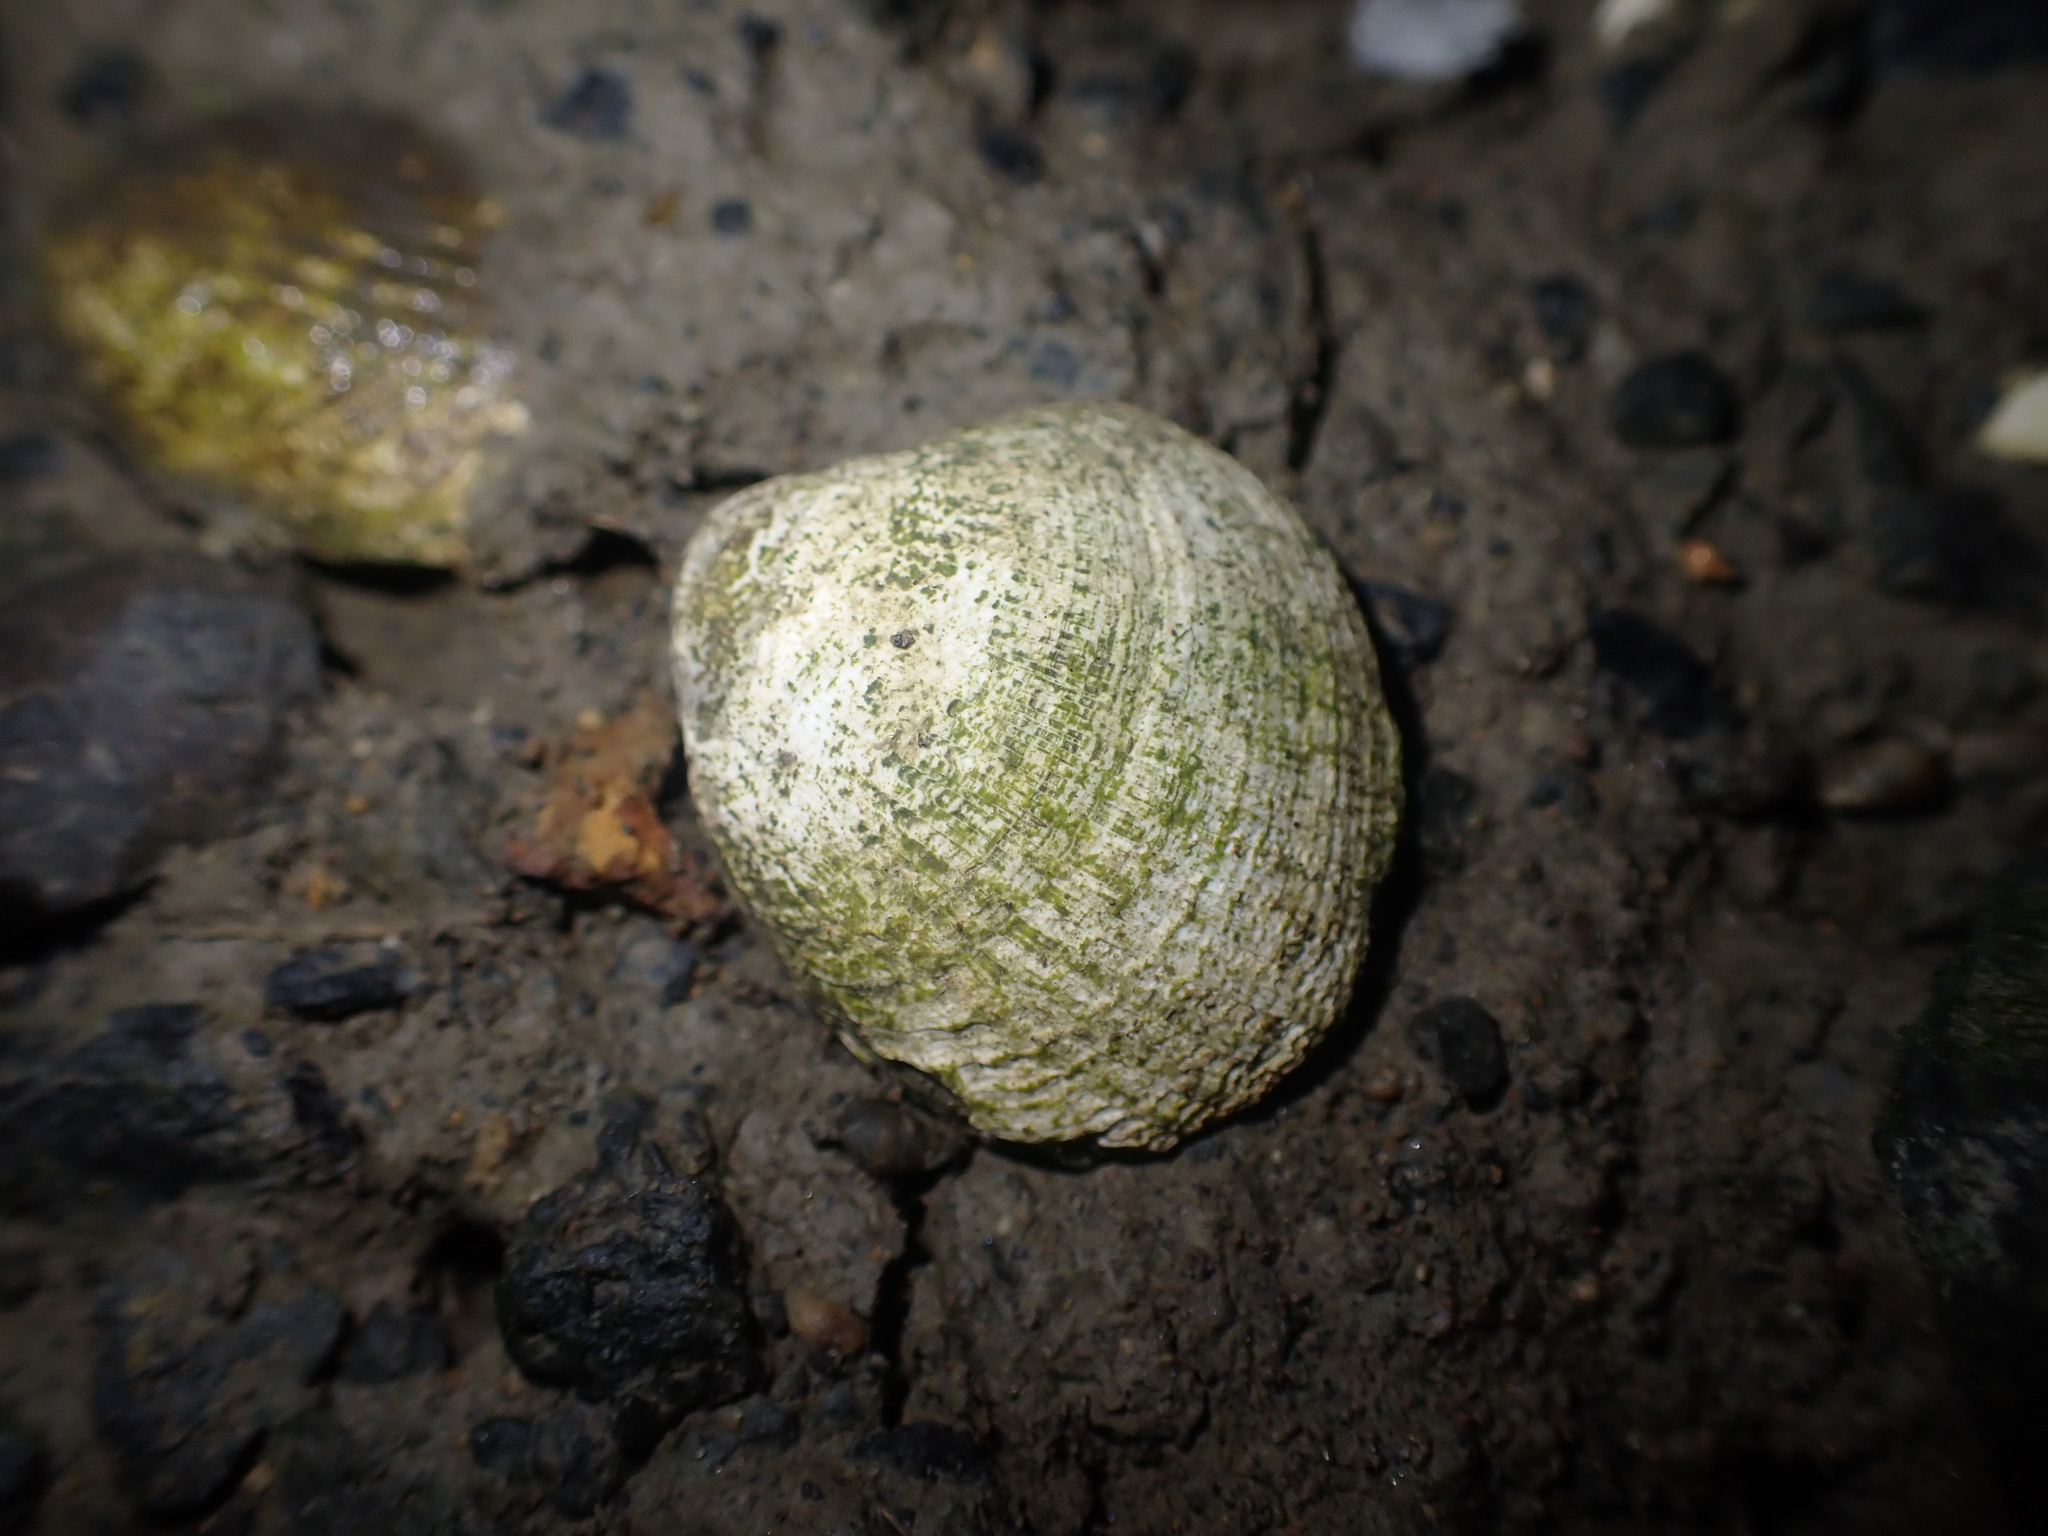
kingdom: Animalia
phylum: Mollusca
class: Bivalvia
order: Venerida
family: Veneridae
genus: Austrovenus
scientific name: Austrovenus stutchburyi
